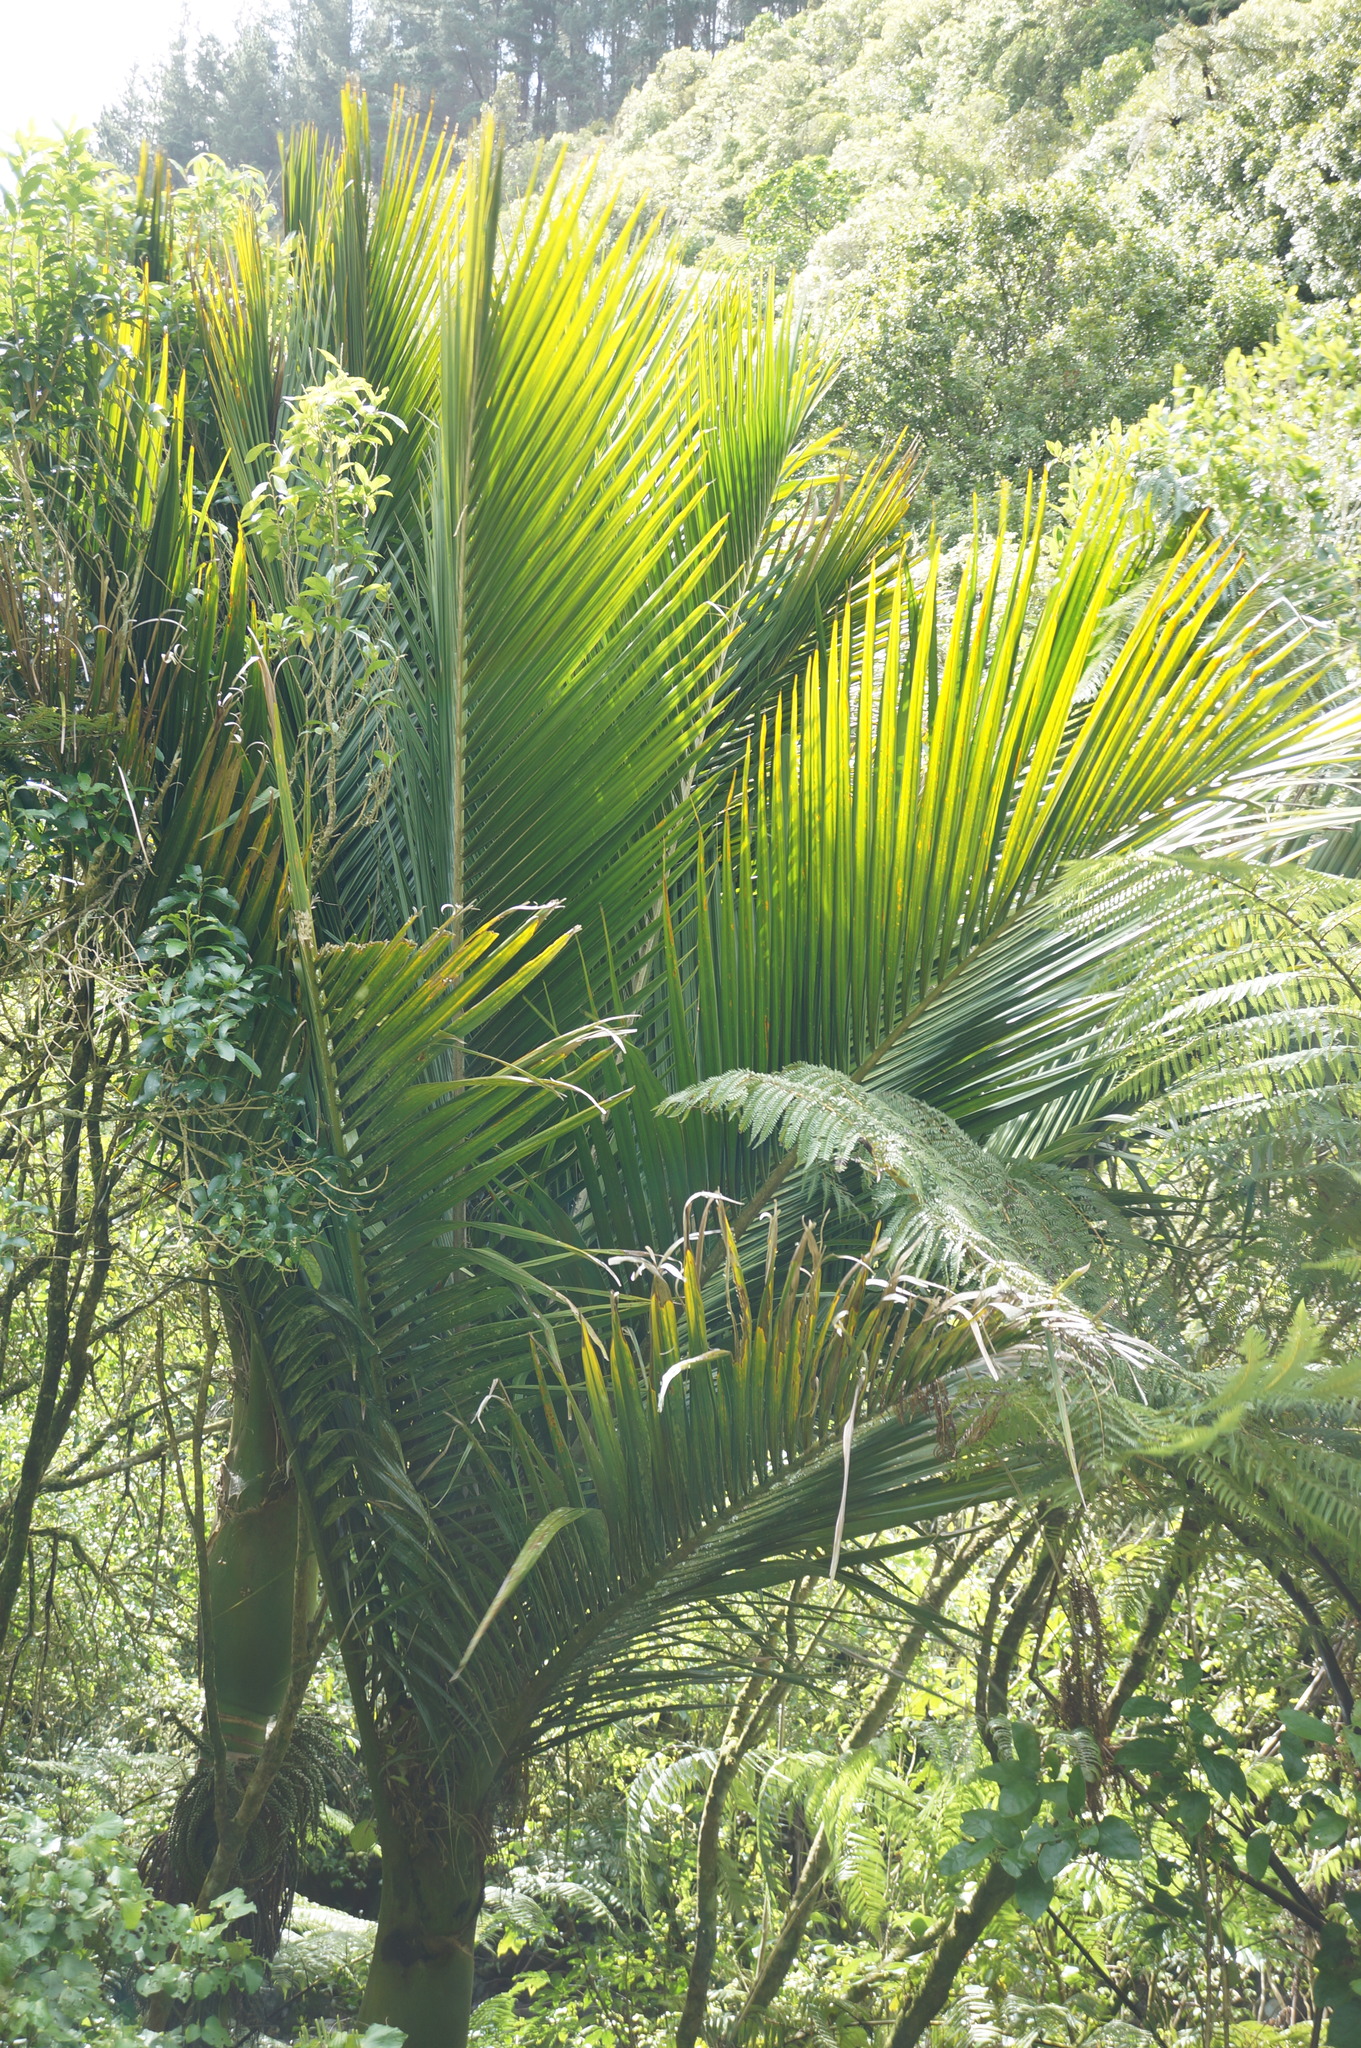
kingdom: Plantae
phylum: Tracheophyta
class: Liliopsida
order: Arecales
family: Arecaceae
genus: Rhopalostylis
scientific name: Rhopalostylis sapida
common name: Feather-duster palm
